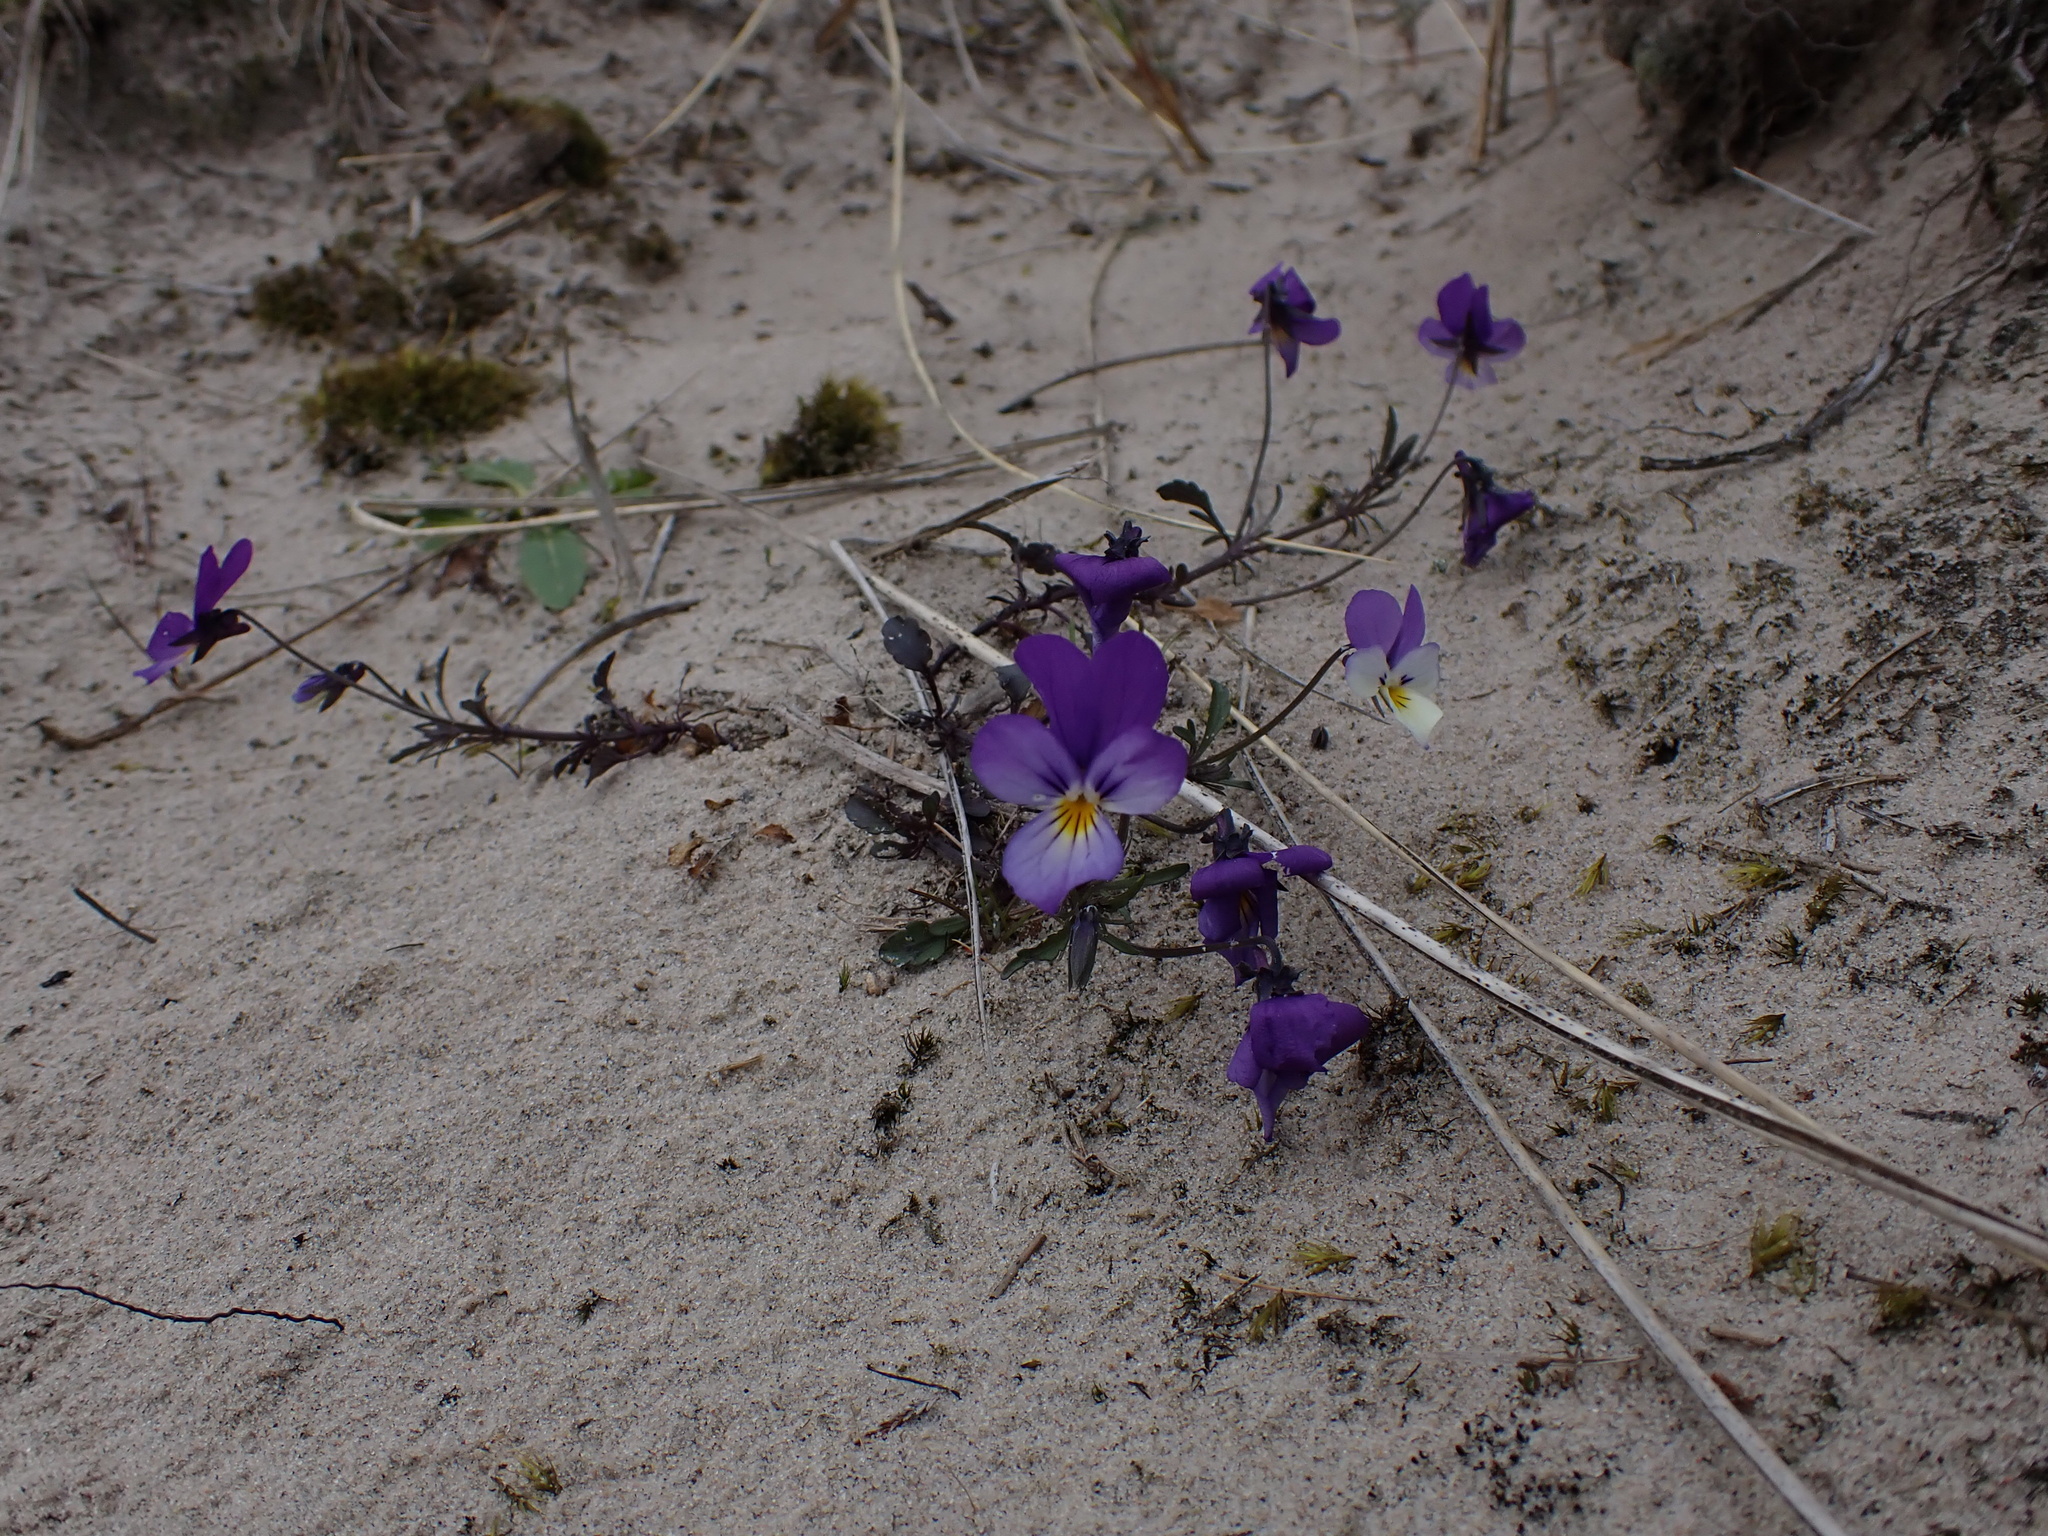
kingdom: Plantae
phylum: Tracheophyta
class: Magnoliopsida
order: Malpighiales
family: Violaceae
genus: Viola
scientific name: Viola tricolor
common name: Pansy
